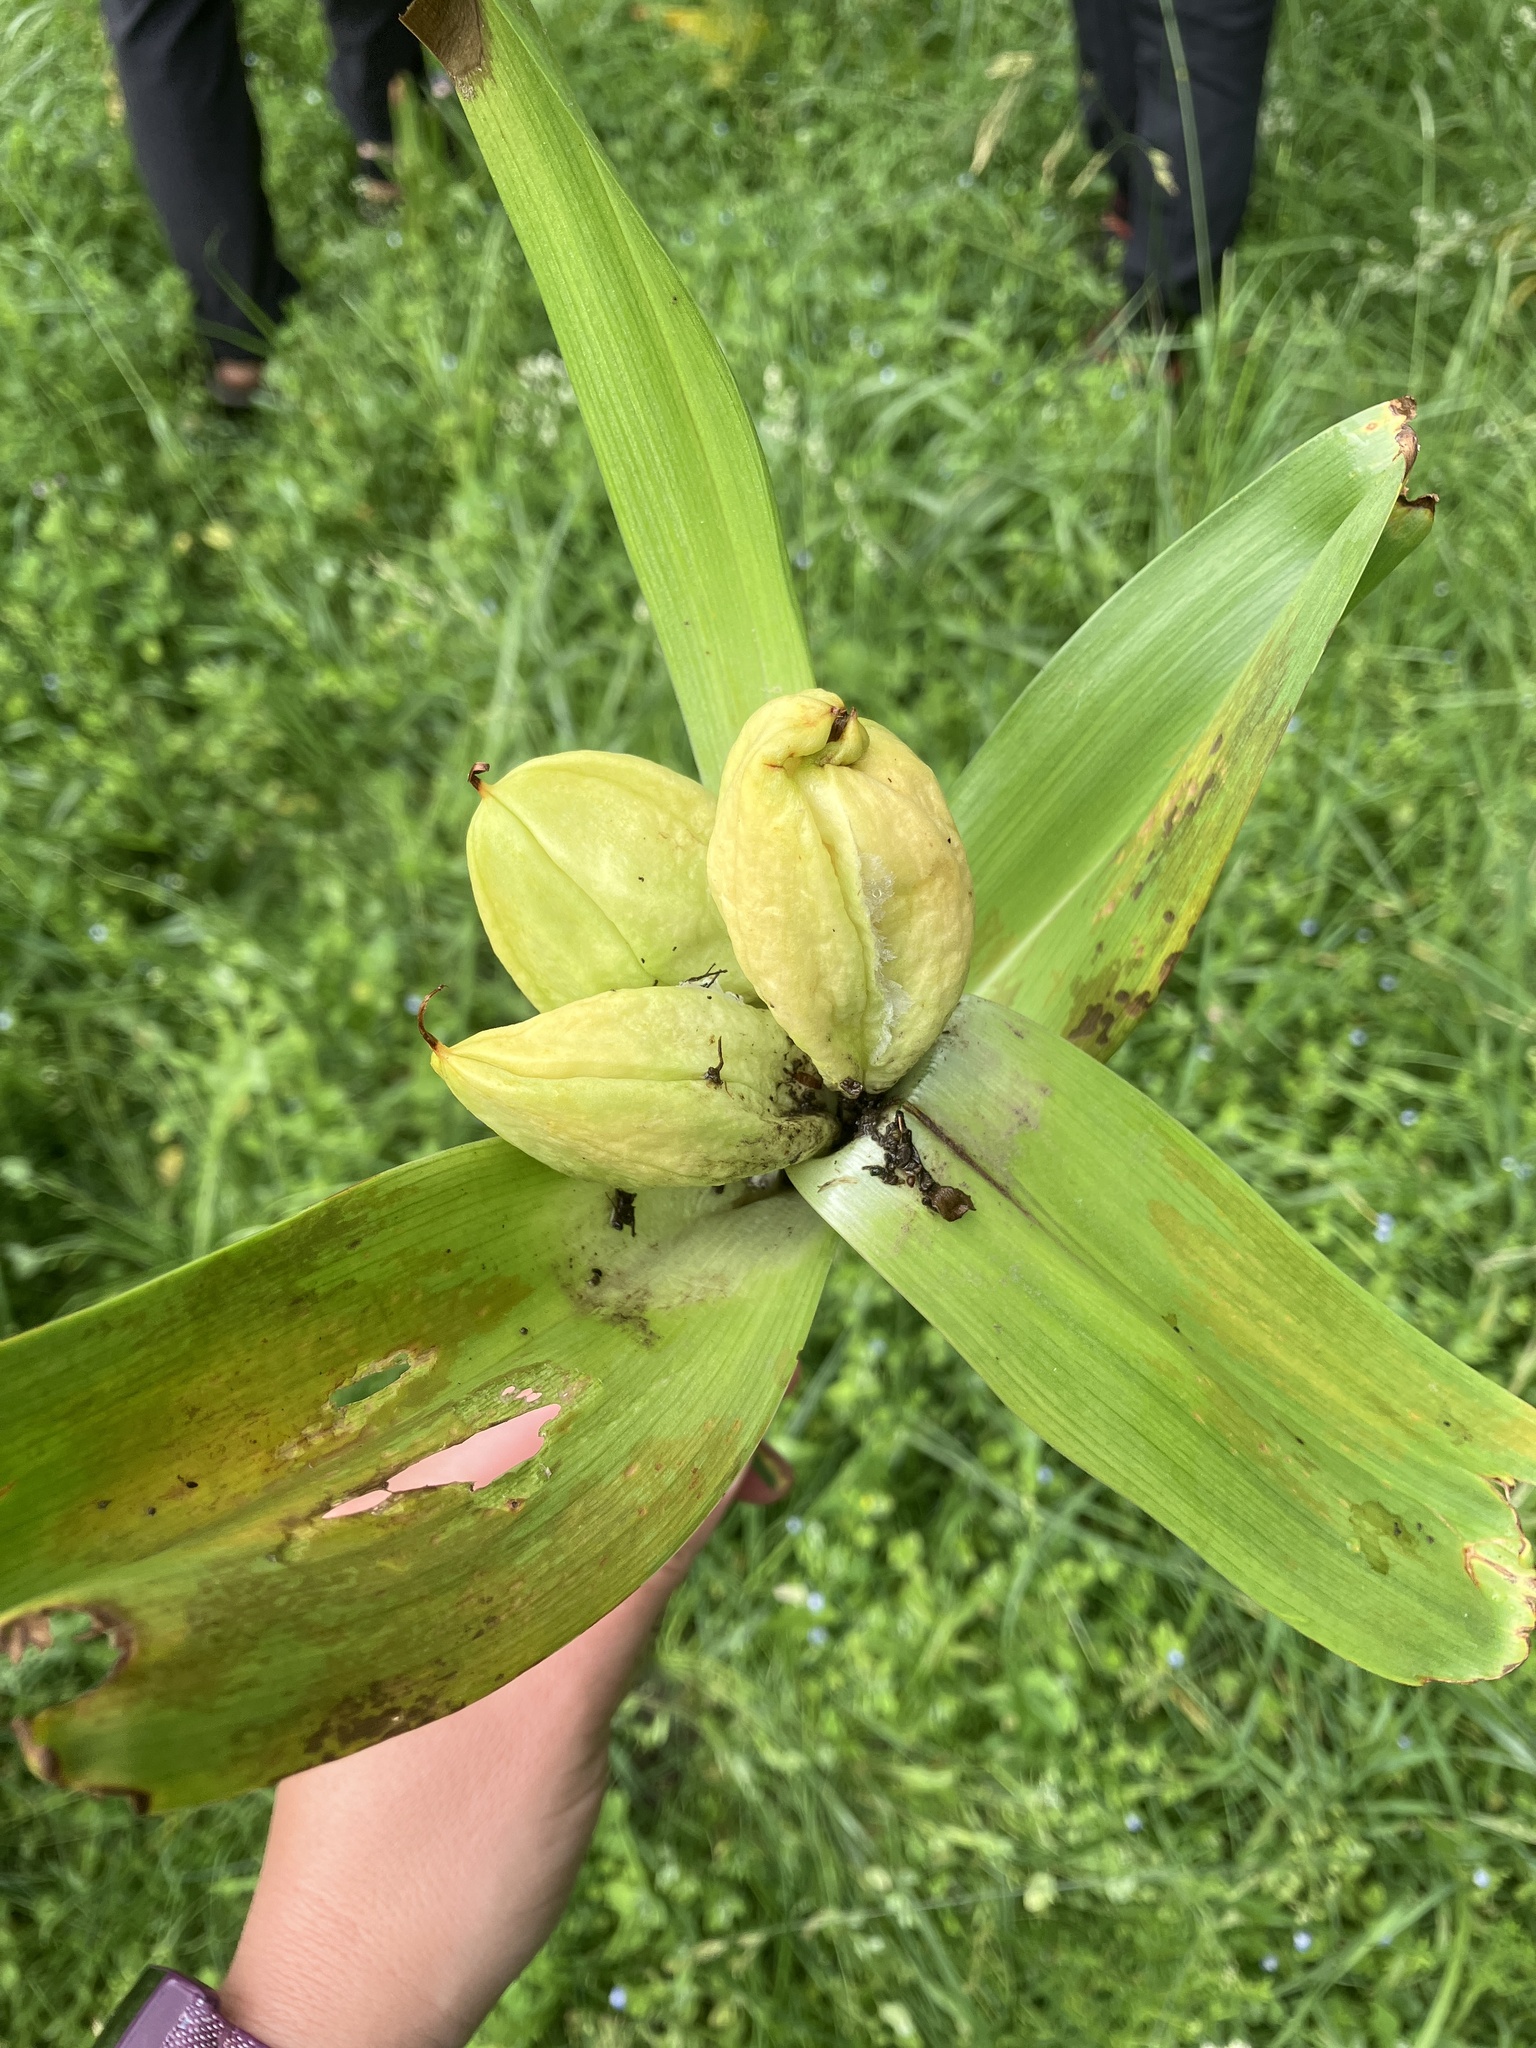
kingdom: Plantae
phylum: Tracheophyta
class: Liliopsida
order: Liliales
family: Colchicaceae
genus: Colchicum
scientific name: Colchicum autumnale
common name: Autumn crocus
